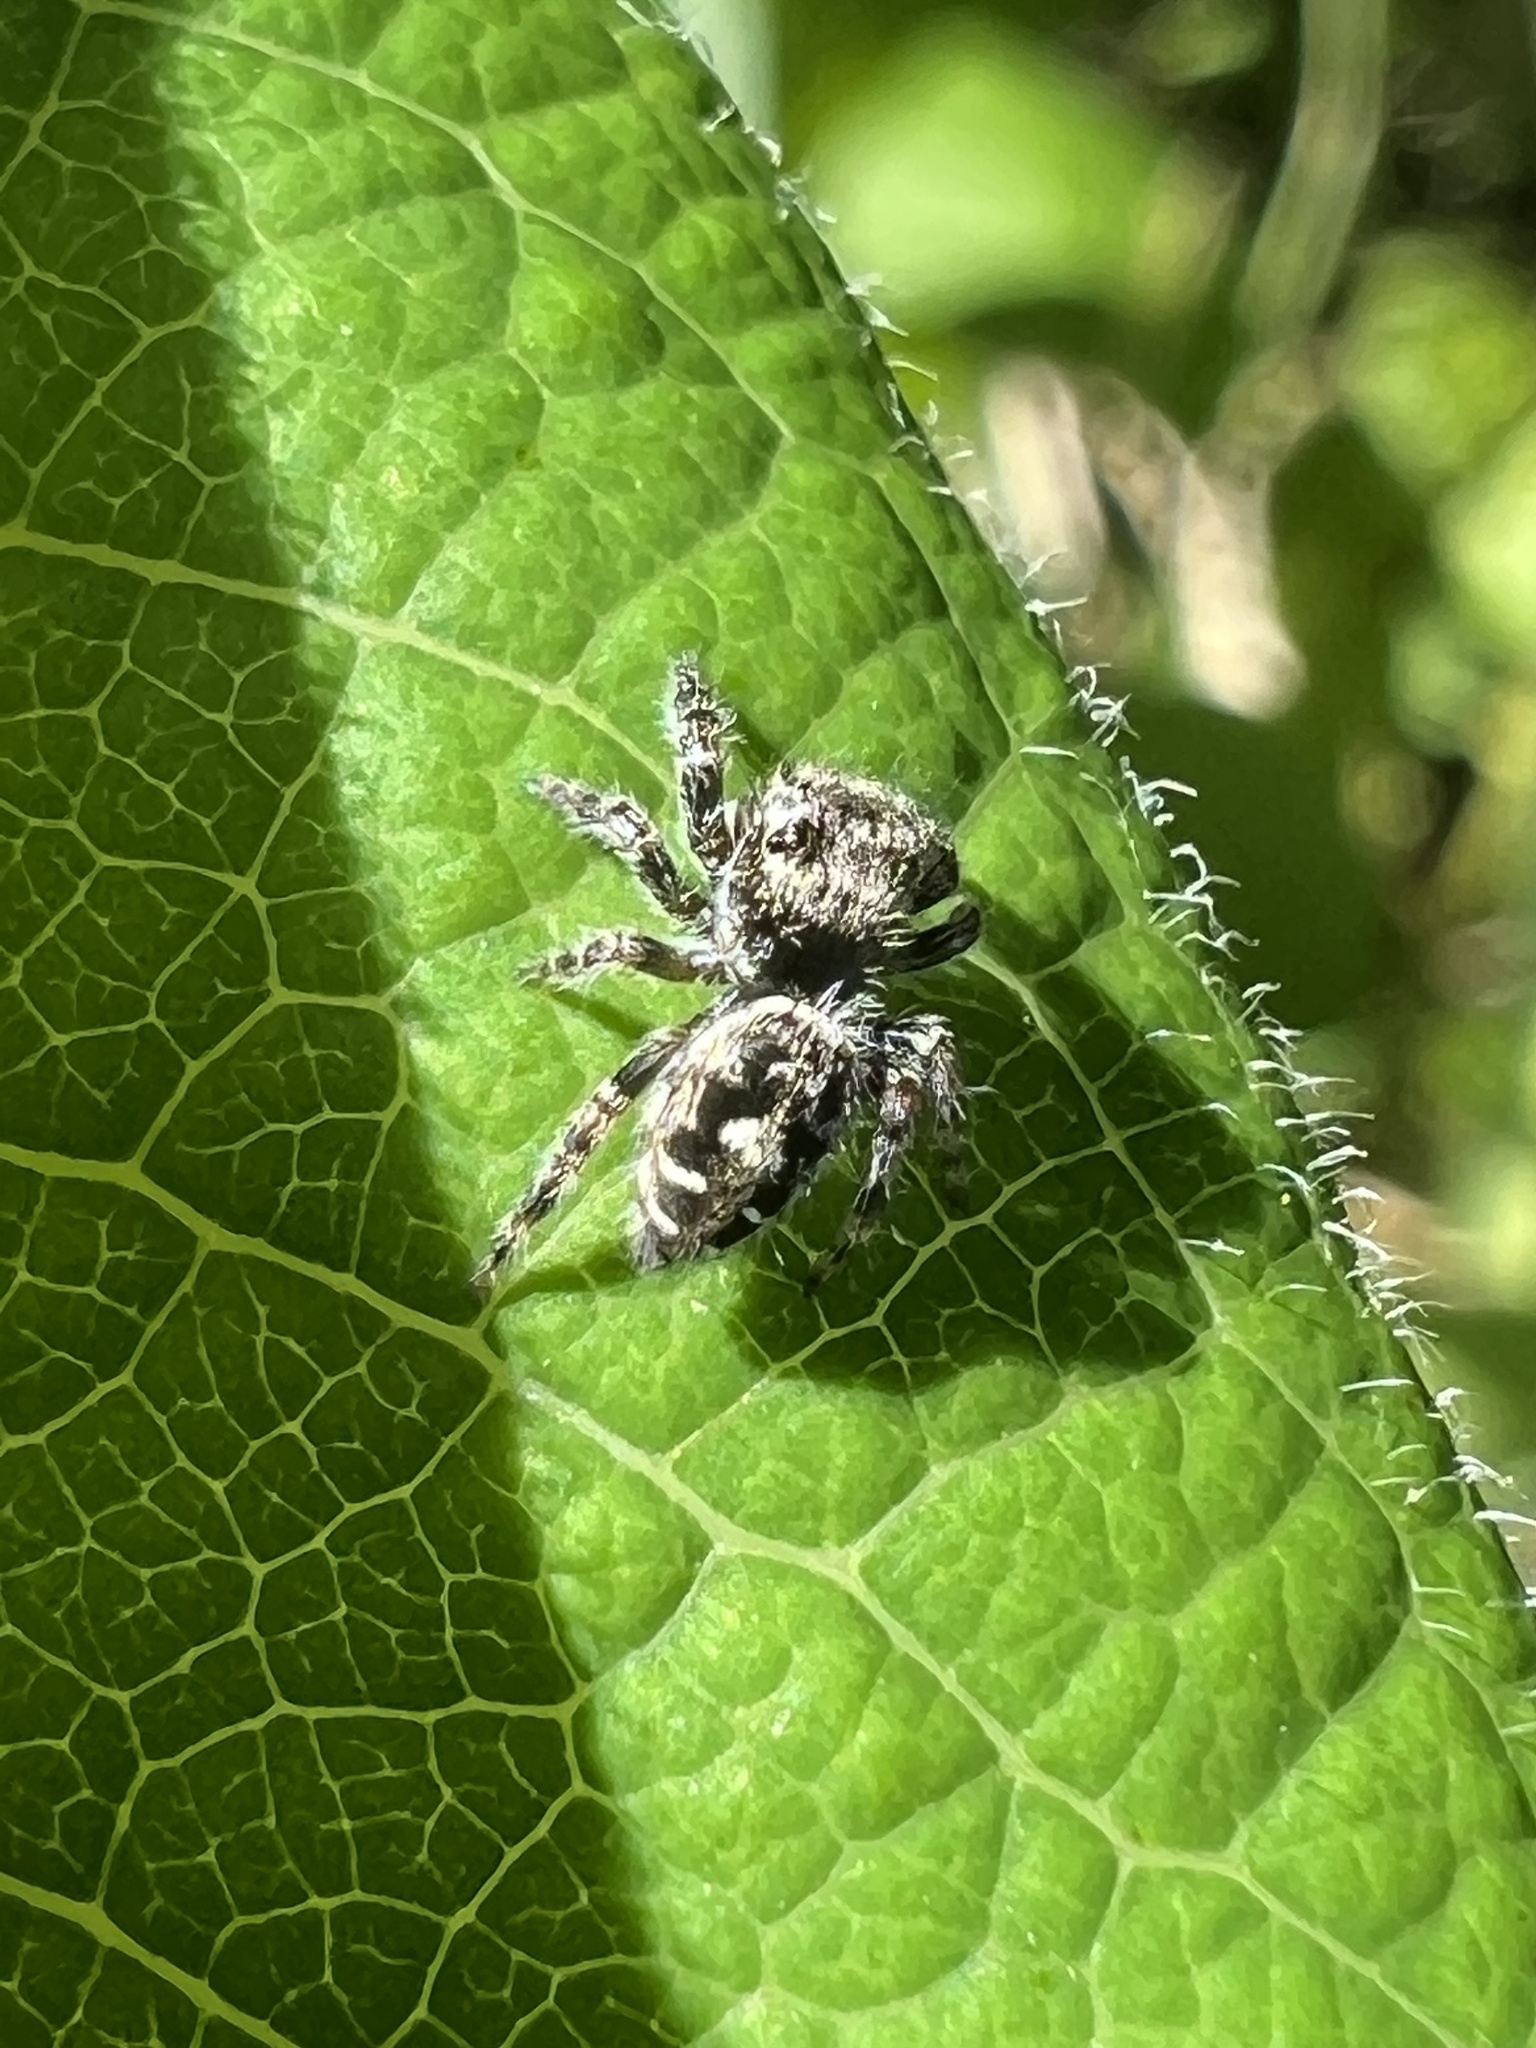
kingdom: Animalia
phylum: Arthropoda
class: Arachnida
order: Araneae
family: Salticidae
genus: Phidippus
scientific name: Phidippus putnami
